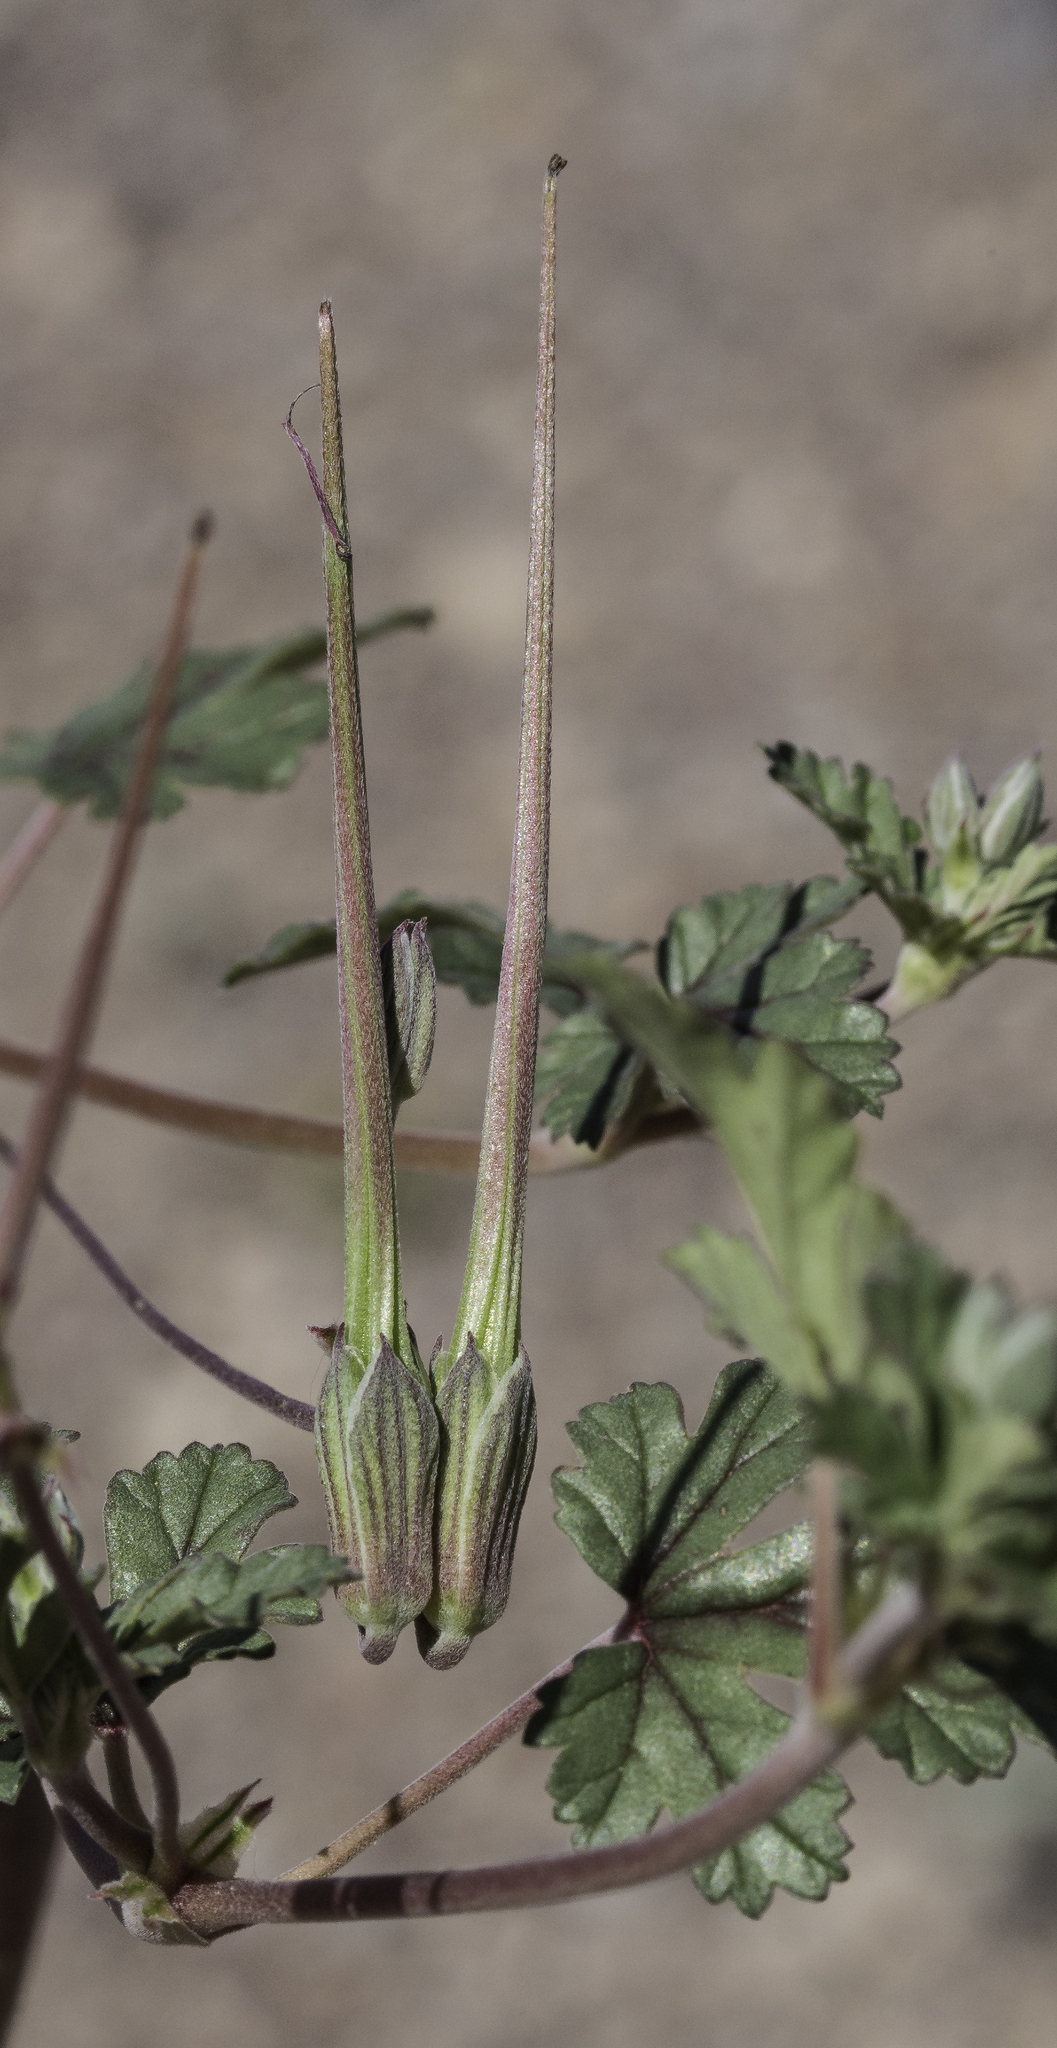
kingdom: Plantae
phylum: Tracheophyta
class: Magnoliopsida
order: Geraniales
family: Geraniaceae
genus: Erodium
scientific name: Erodium texanum
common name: Texas stork's-bill
